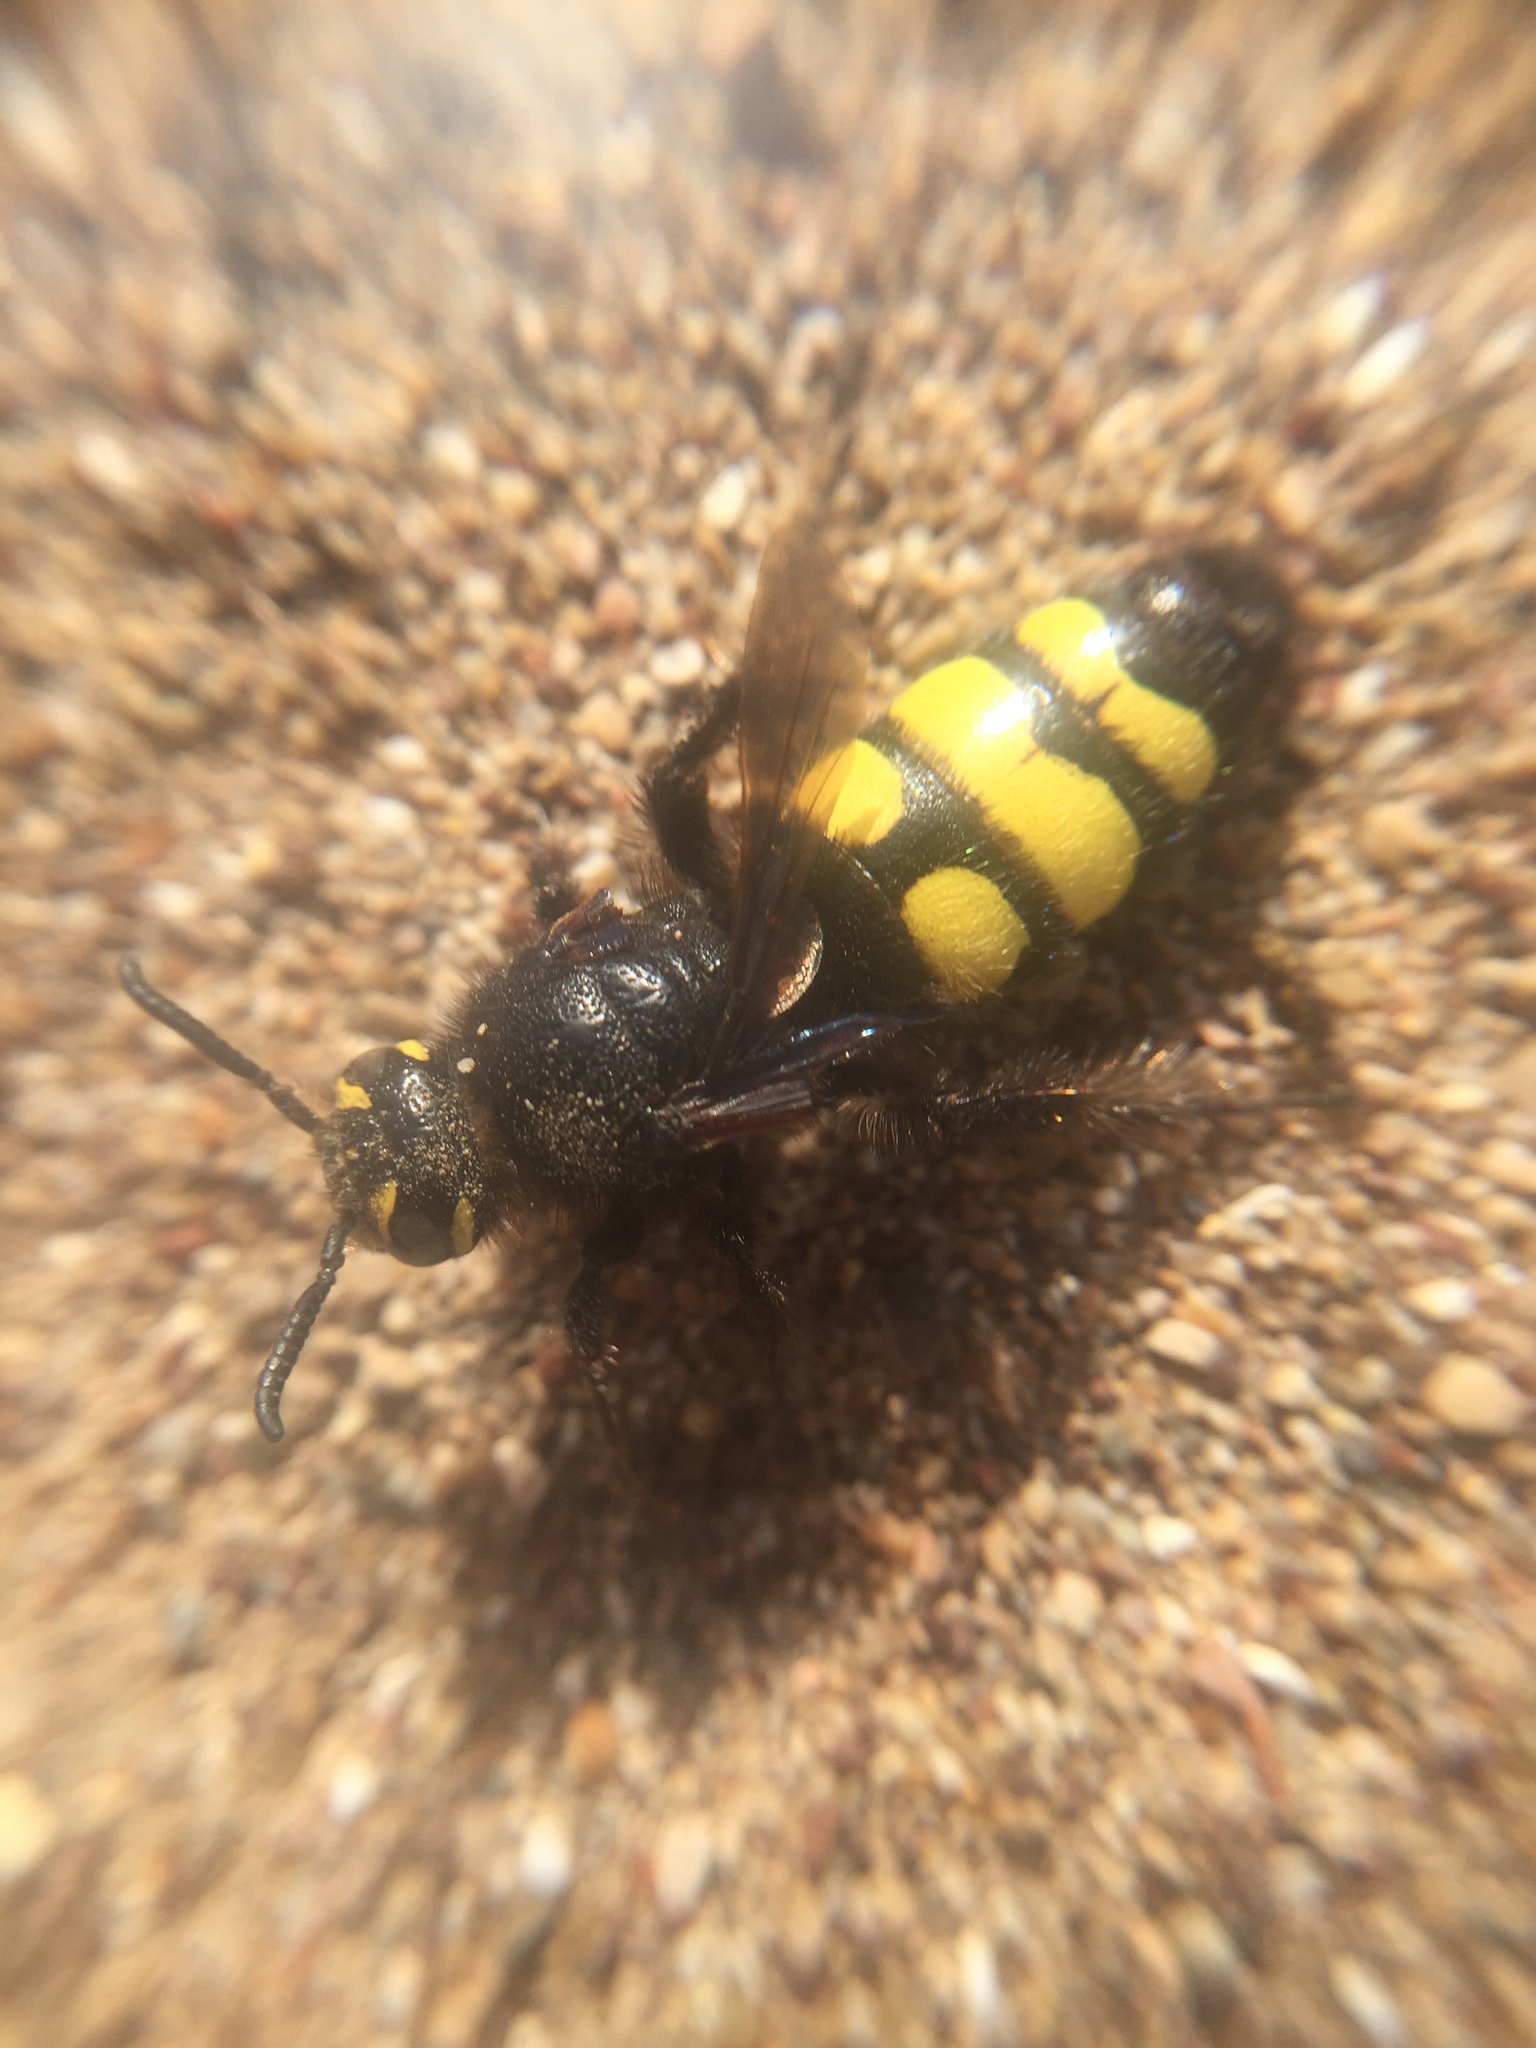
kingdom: Animalia
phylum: Arthropoda
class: Insecta
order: Hymenoptera
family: Vespidae
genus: Vespa
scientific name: Vespa sexmaculata
